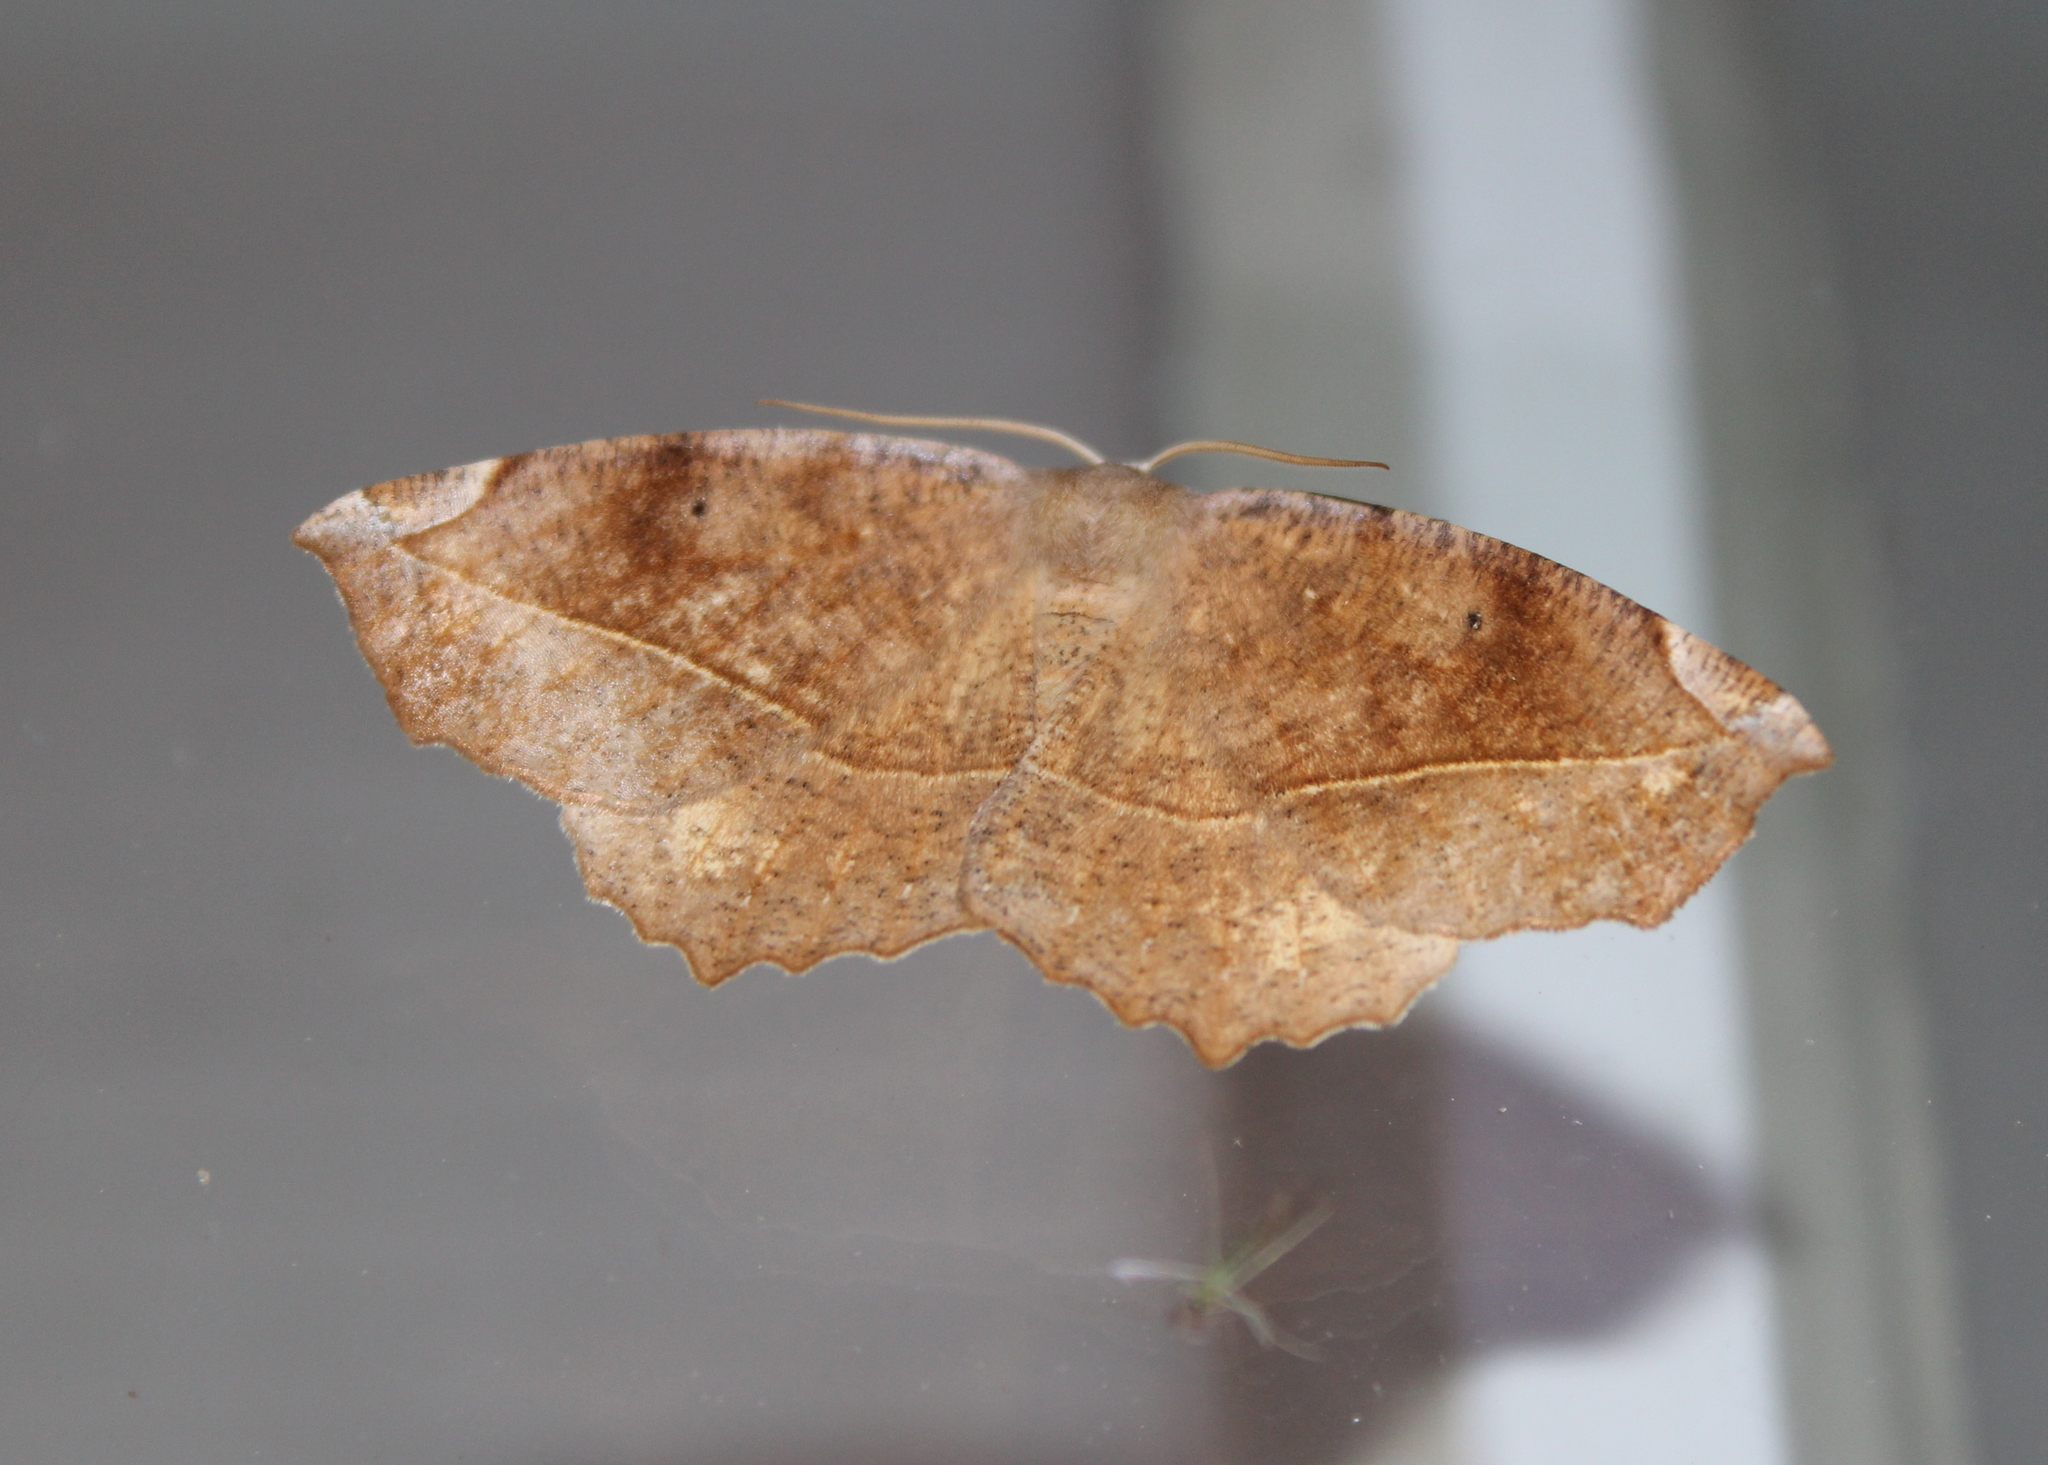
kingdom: Animalia
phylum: Arthropoda
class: Insecta
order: Lepidoptera
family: Geometridae
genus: Eutrapela
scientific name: Eutrapela clemataria
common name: Curved-toothed geometer
